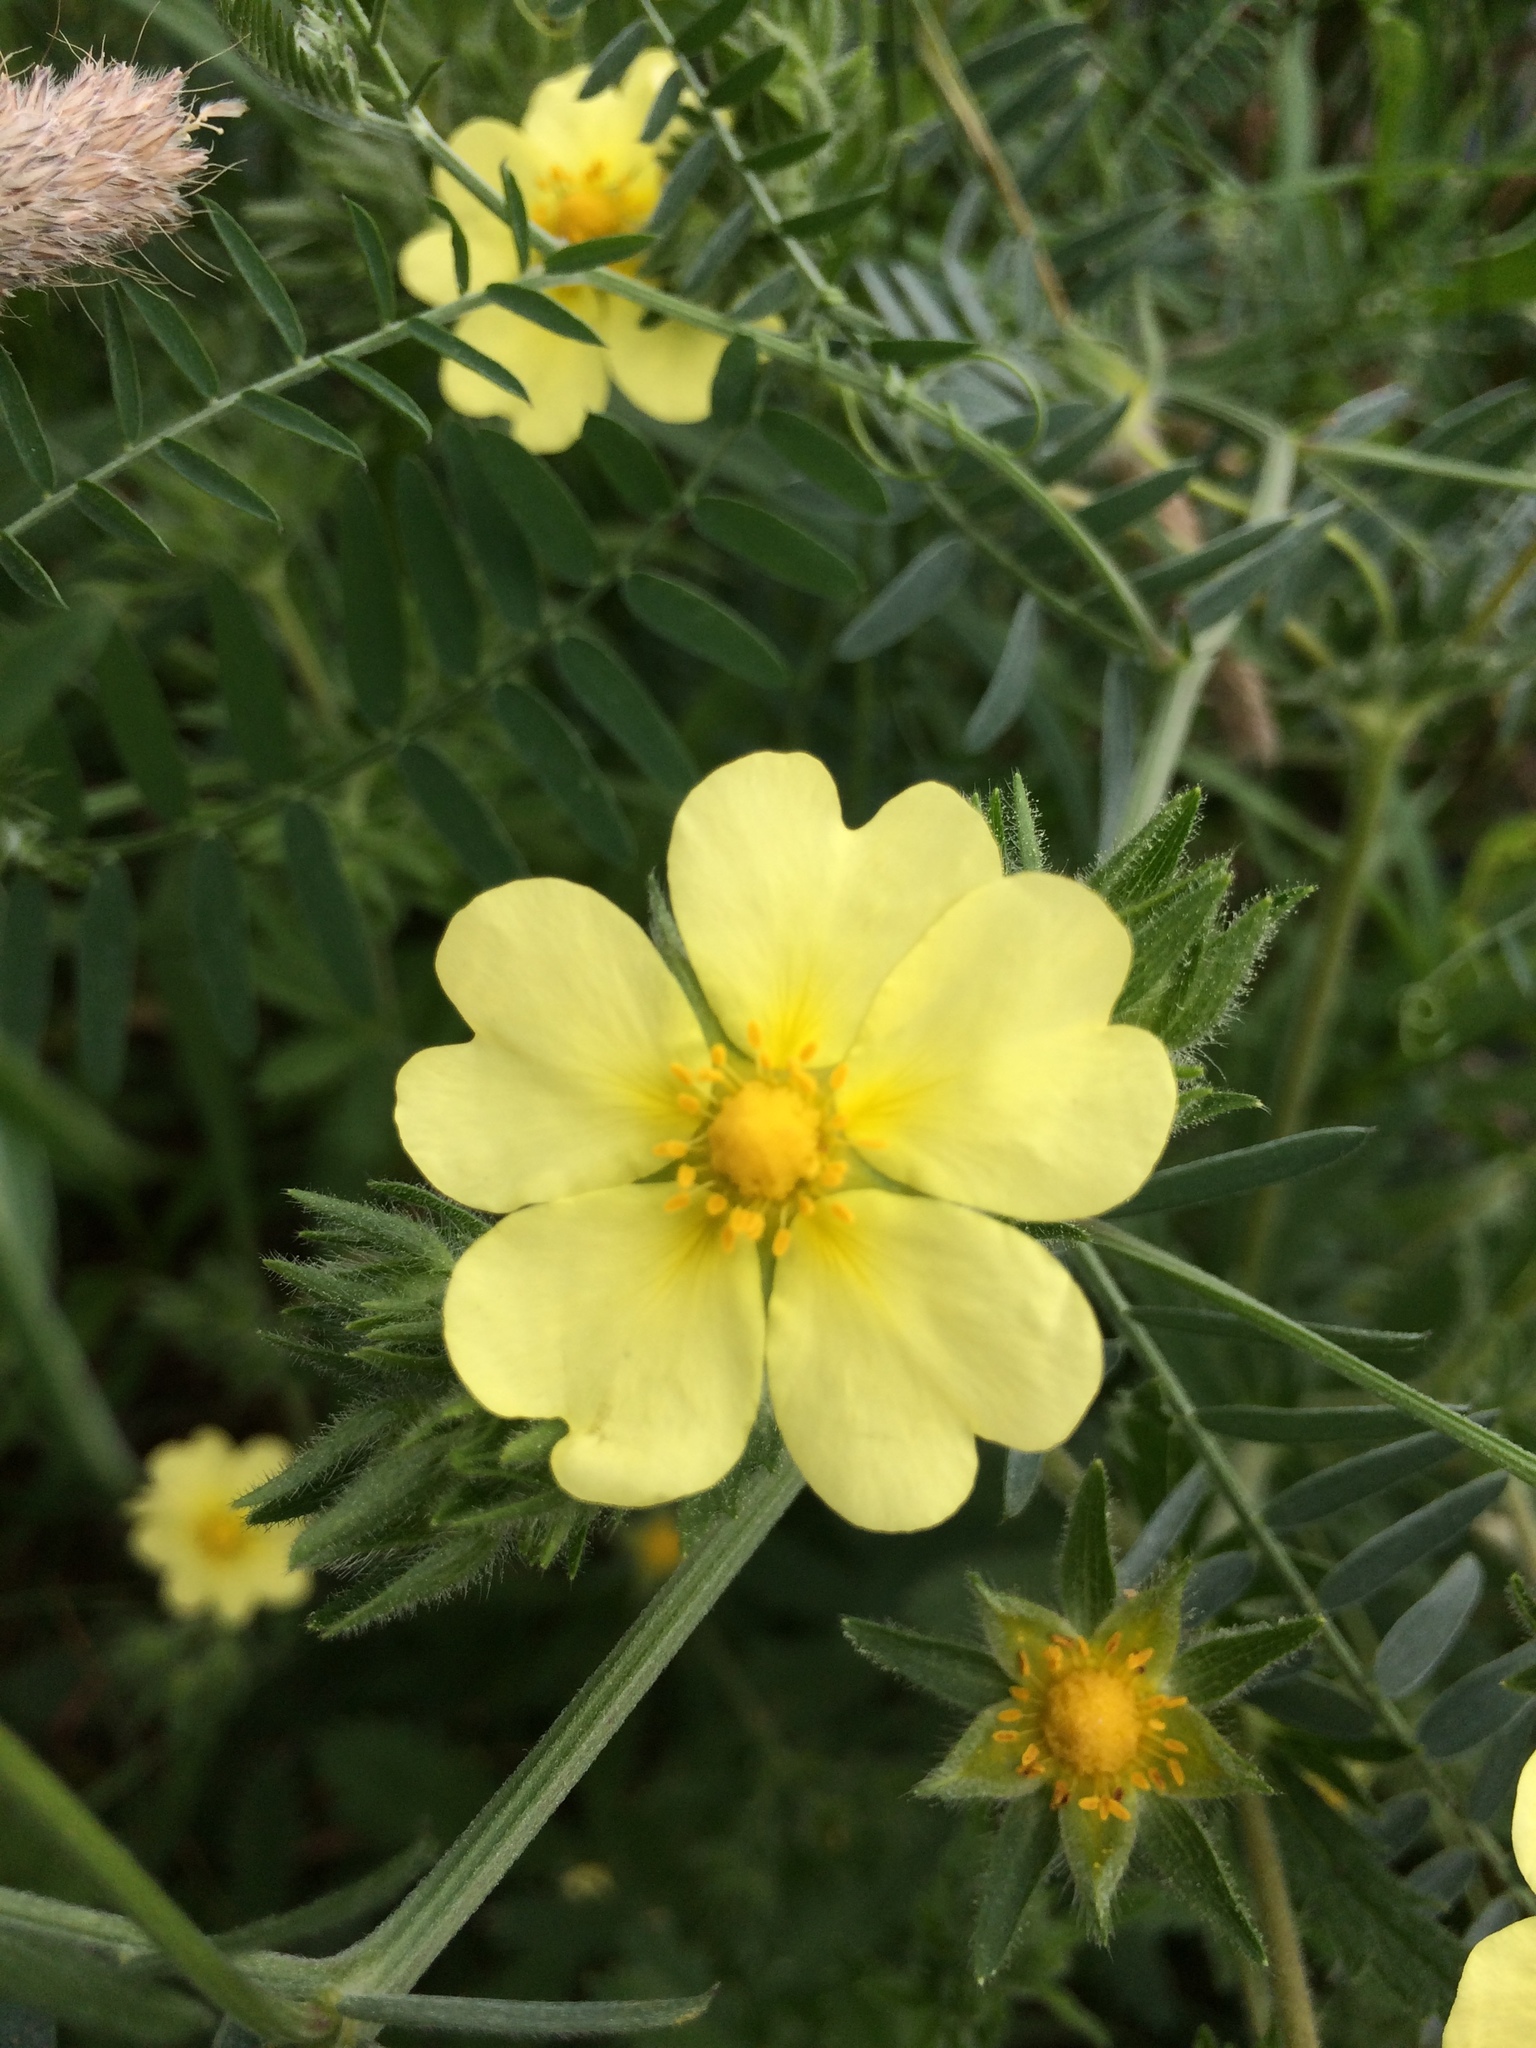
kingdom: Plantae
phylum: Tracheophyta
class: Magnoliopsida
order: Rosales
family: Rosaceae
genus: Potentilla
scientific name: Potentilla recta
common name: Sulphur cinquefoil
